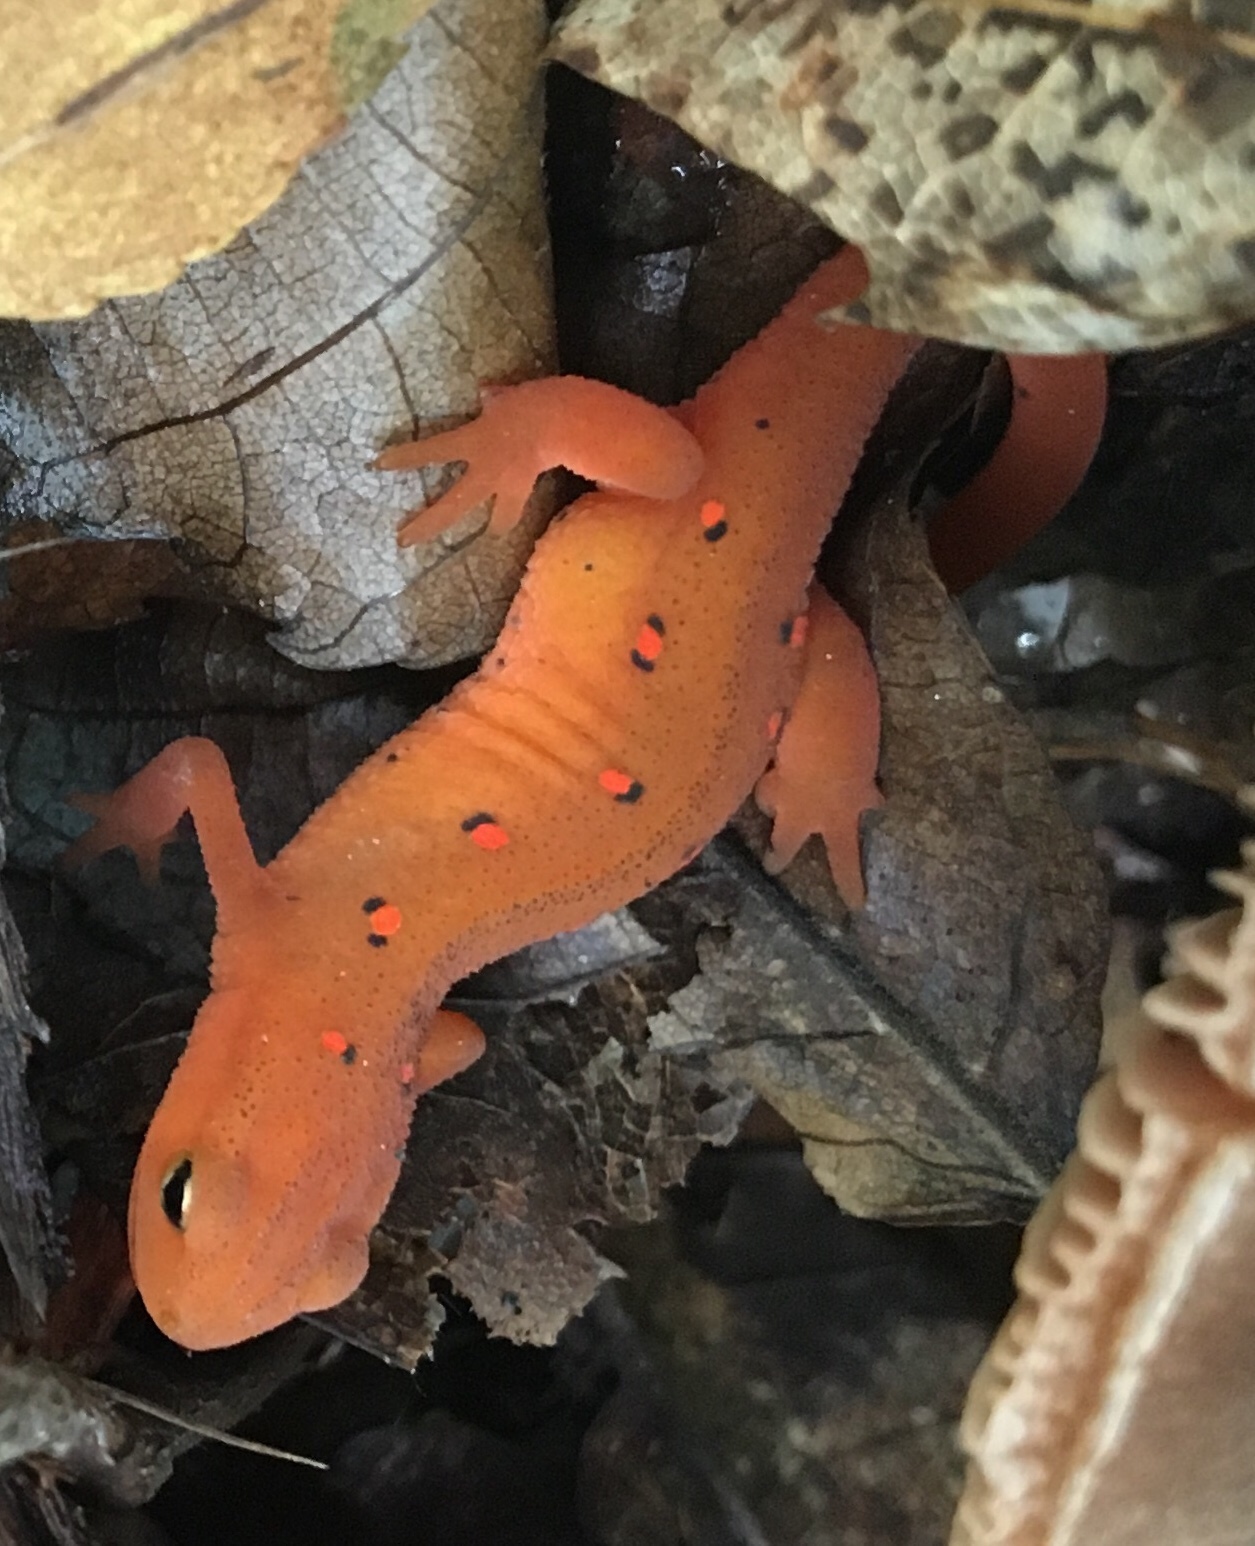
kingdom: Animalia
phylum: Chordata
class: Amphibia
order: Caudata
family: Salamandridae
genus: Notophthalmus
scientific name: Notophthalmus viridescens
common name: Eastern newt
